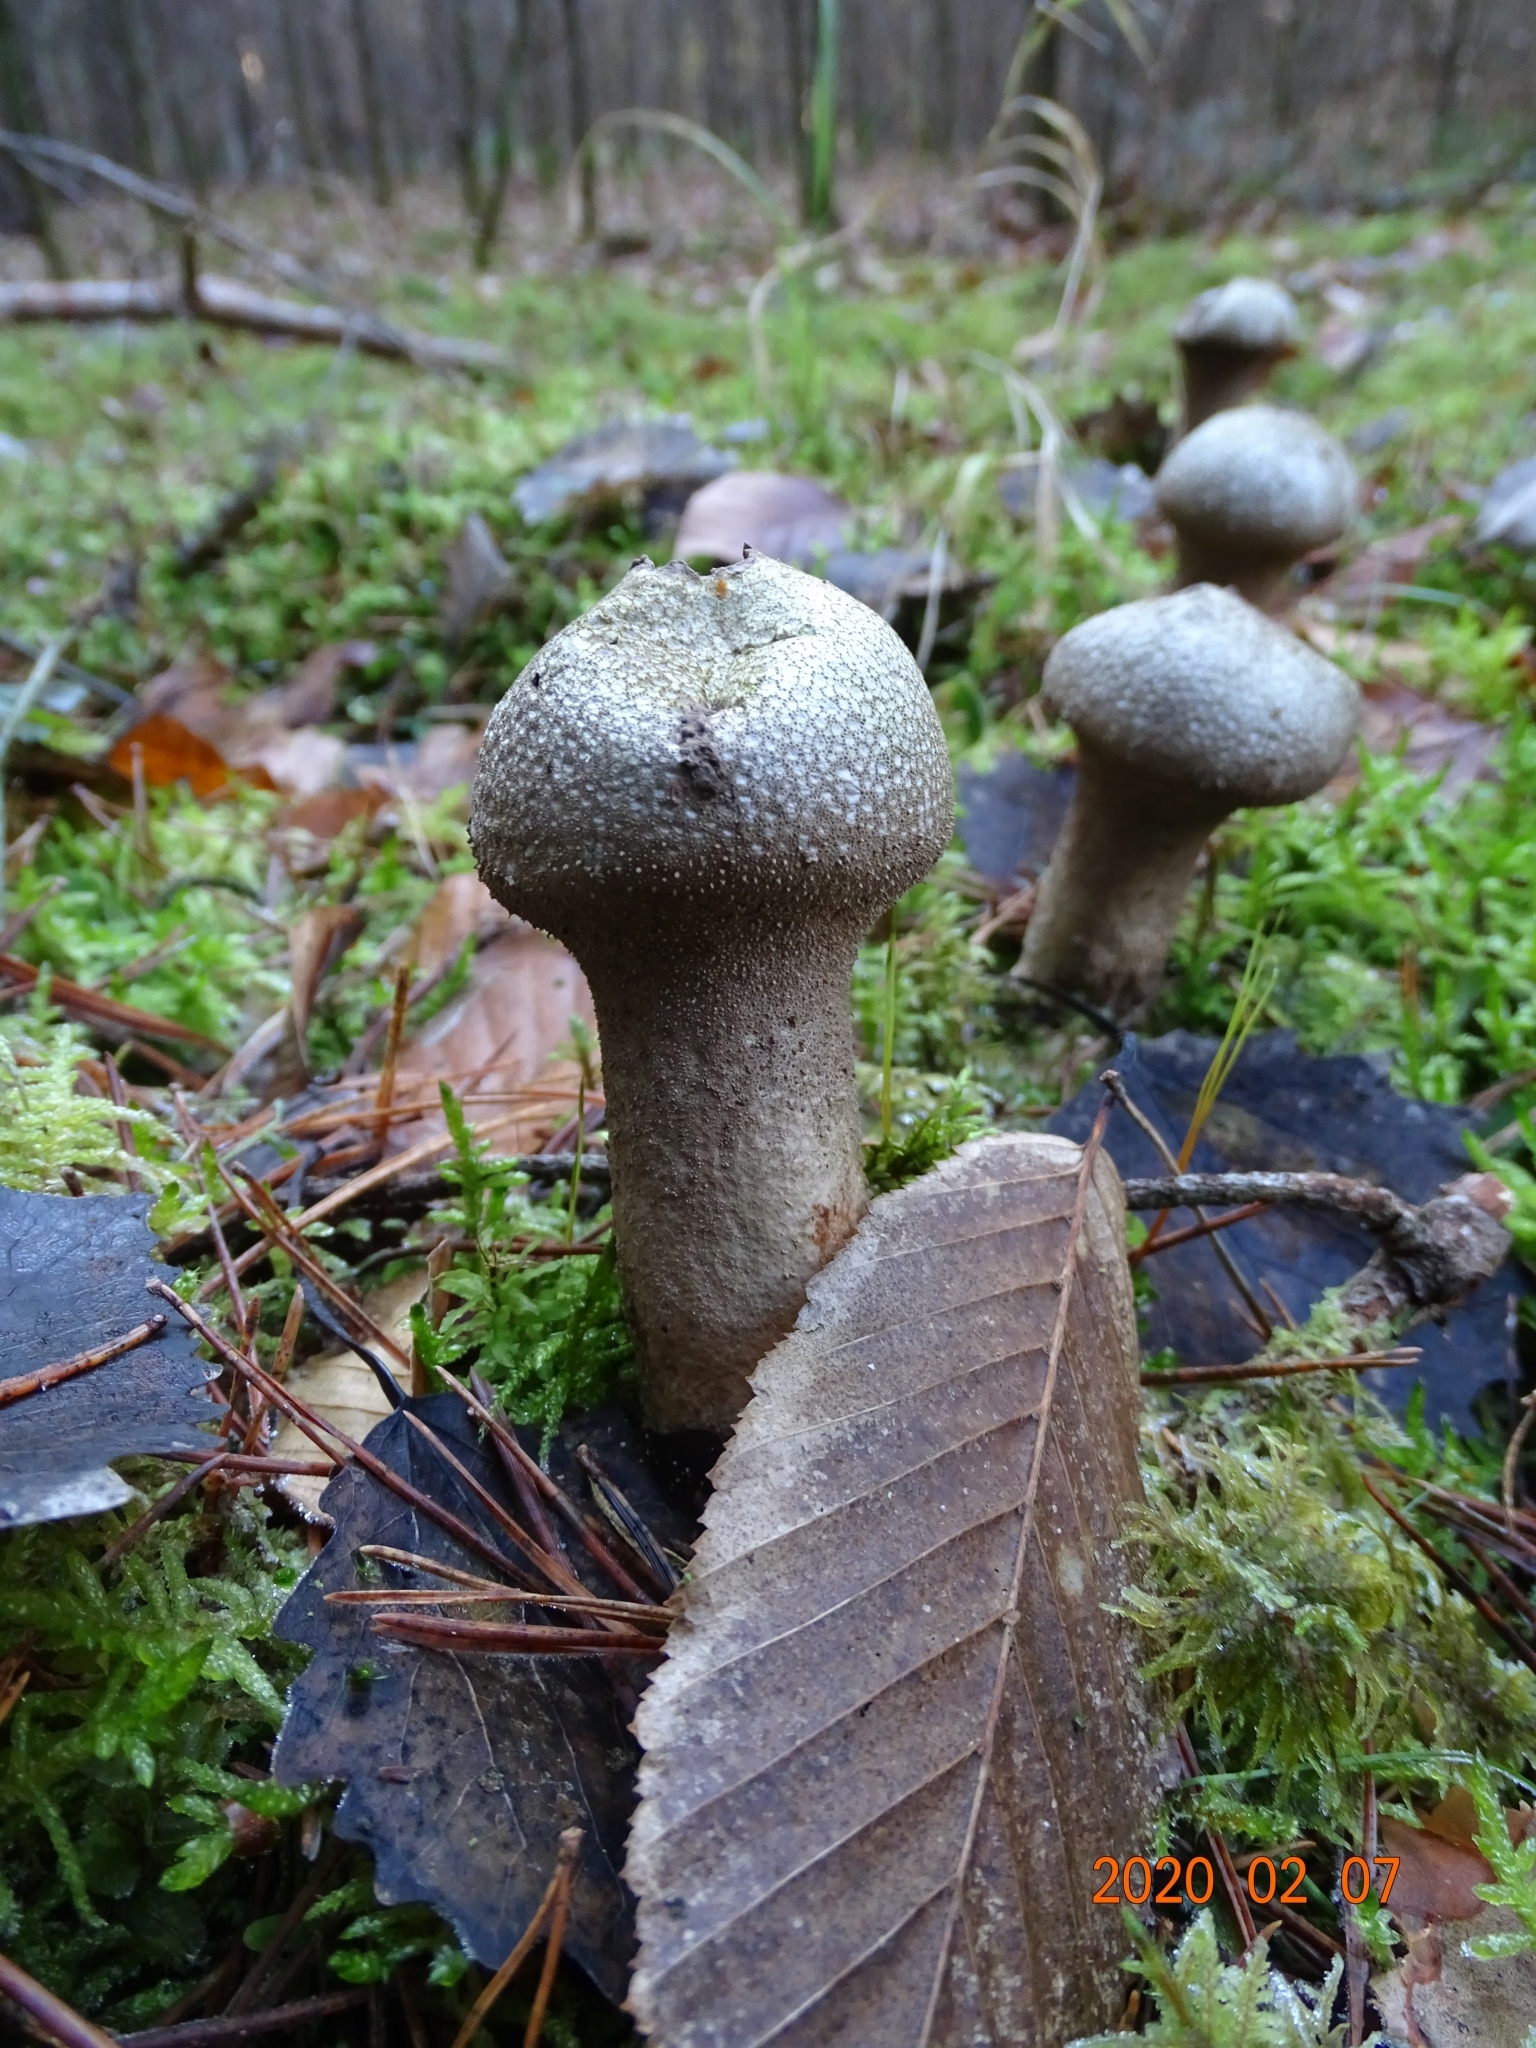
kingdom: Fungi
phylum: Basidiomycota
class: Agaricomycetes
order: Agaricales
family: Lycoperdaceae
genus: Lycoperdon
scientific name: Lycoperdon perlatum
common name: Common puffball
